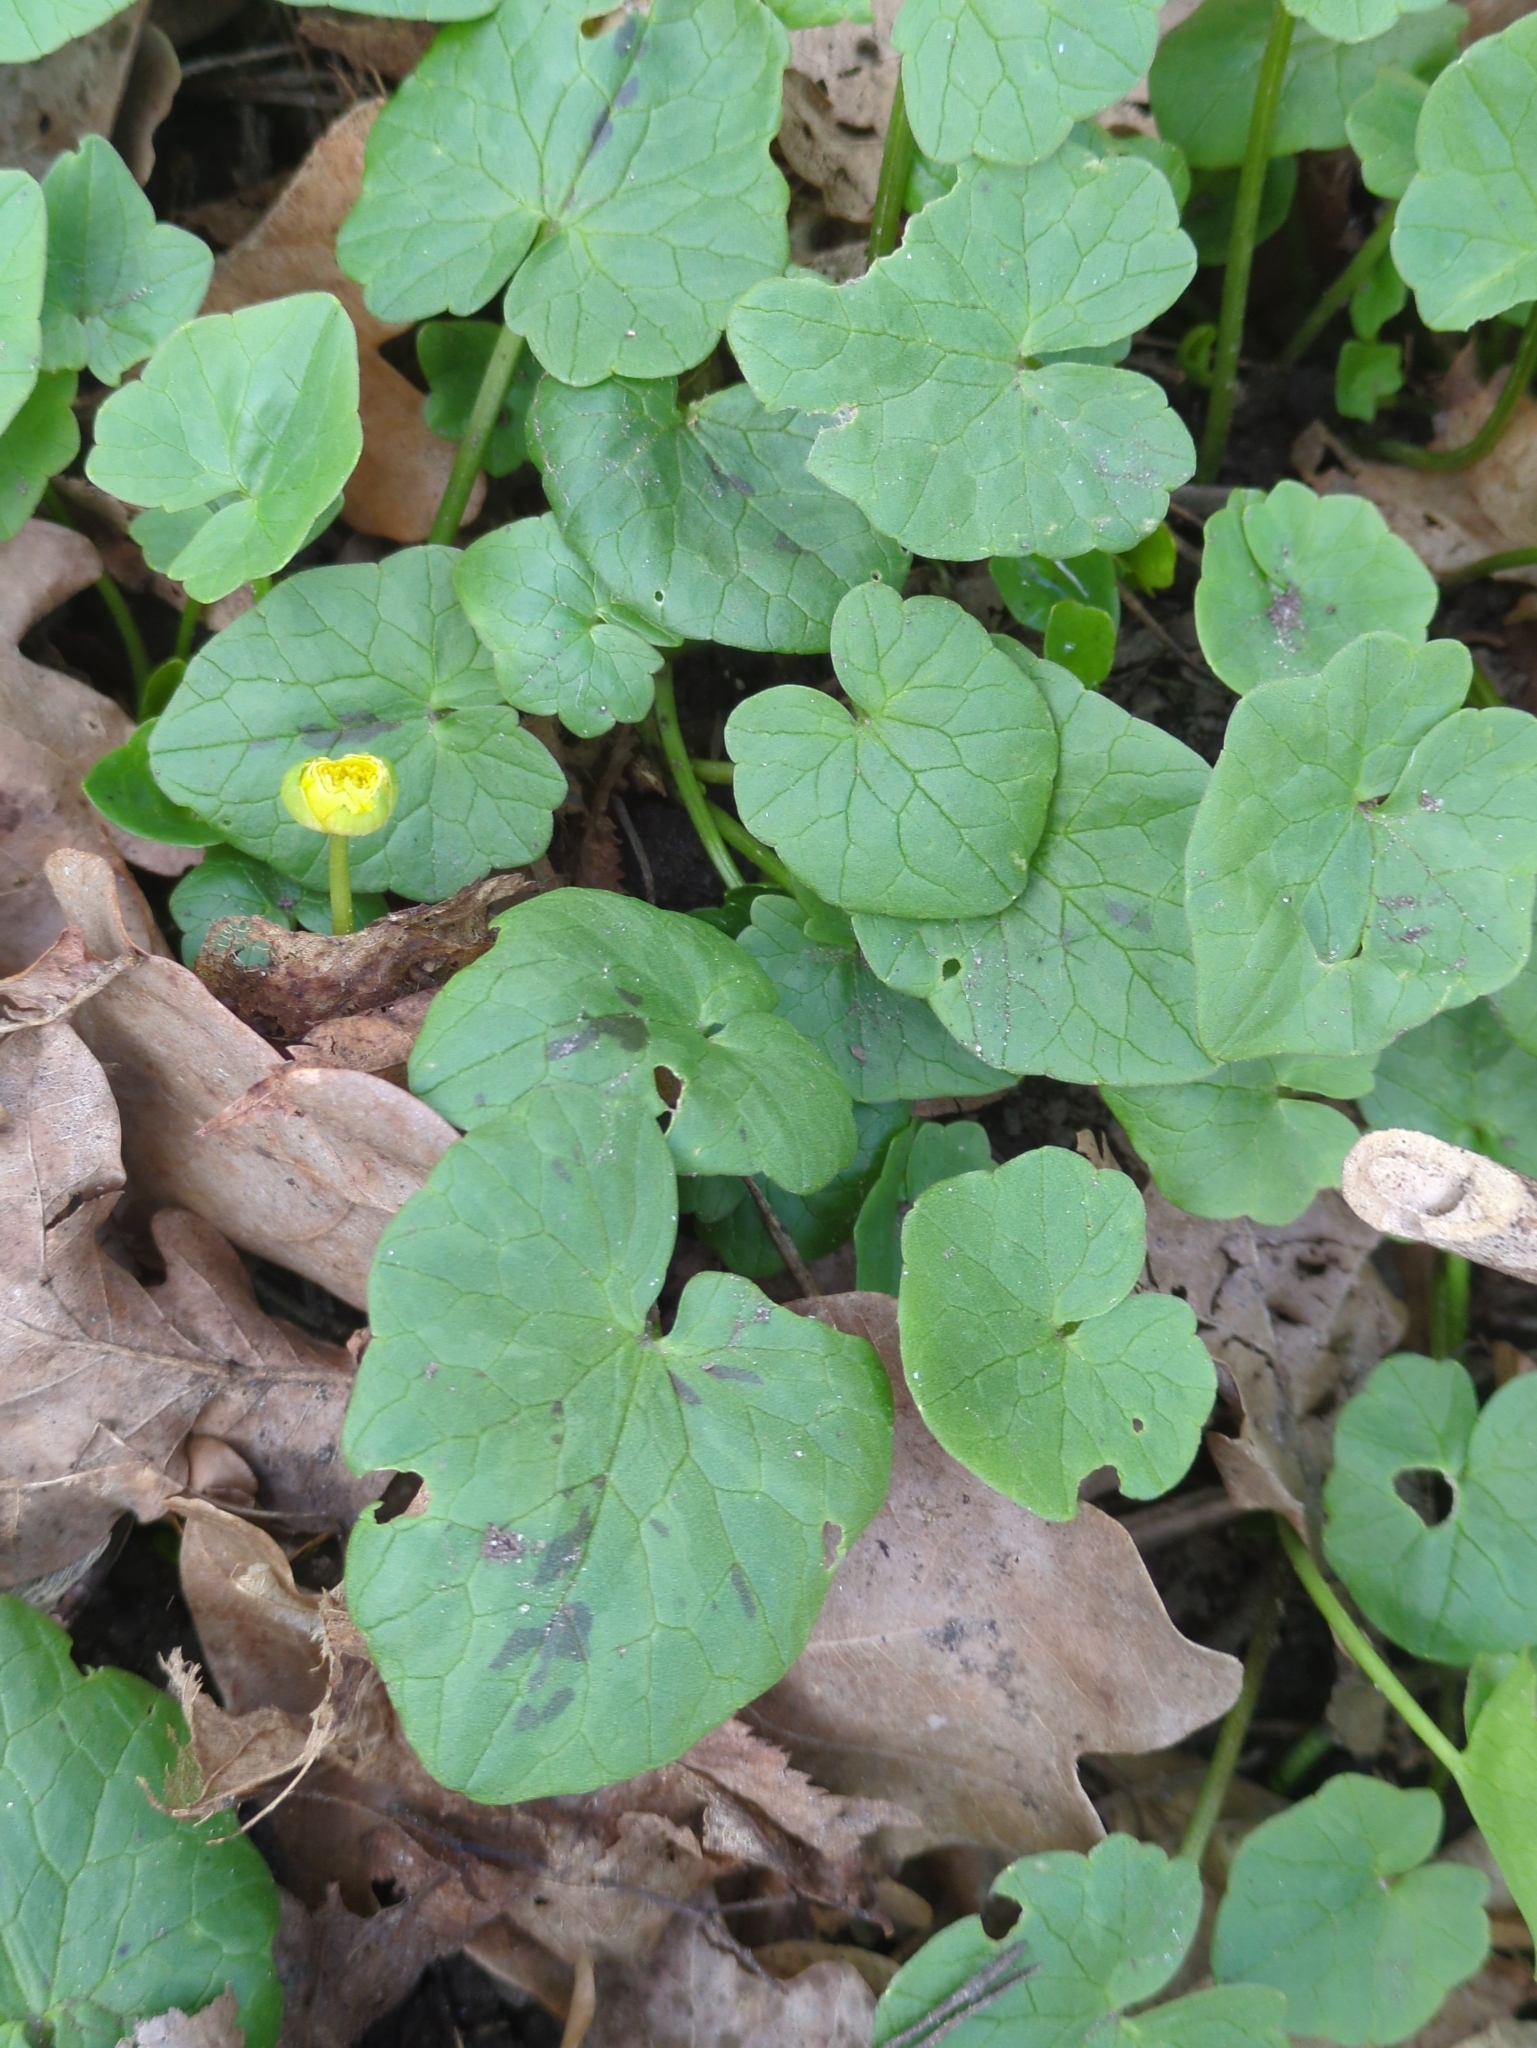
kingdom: Plantae
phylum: Tracheophyta
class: Magnoliopsida
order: Ranunculales
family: Ranunculaceae
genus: Ficaria
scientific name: Ficaria verna
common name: Lesser celandine
